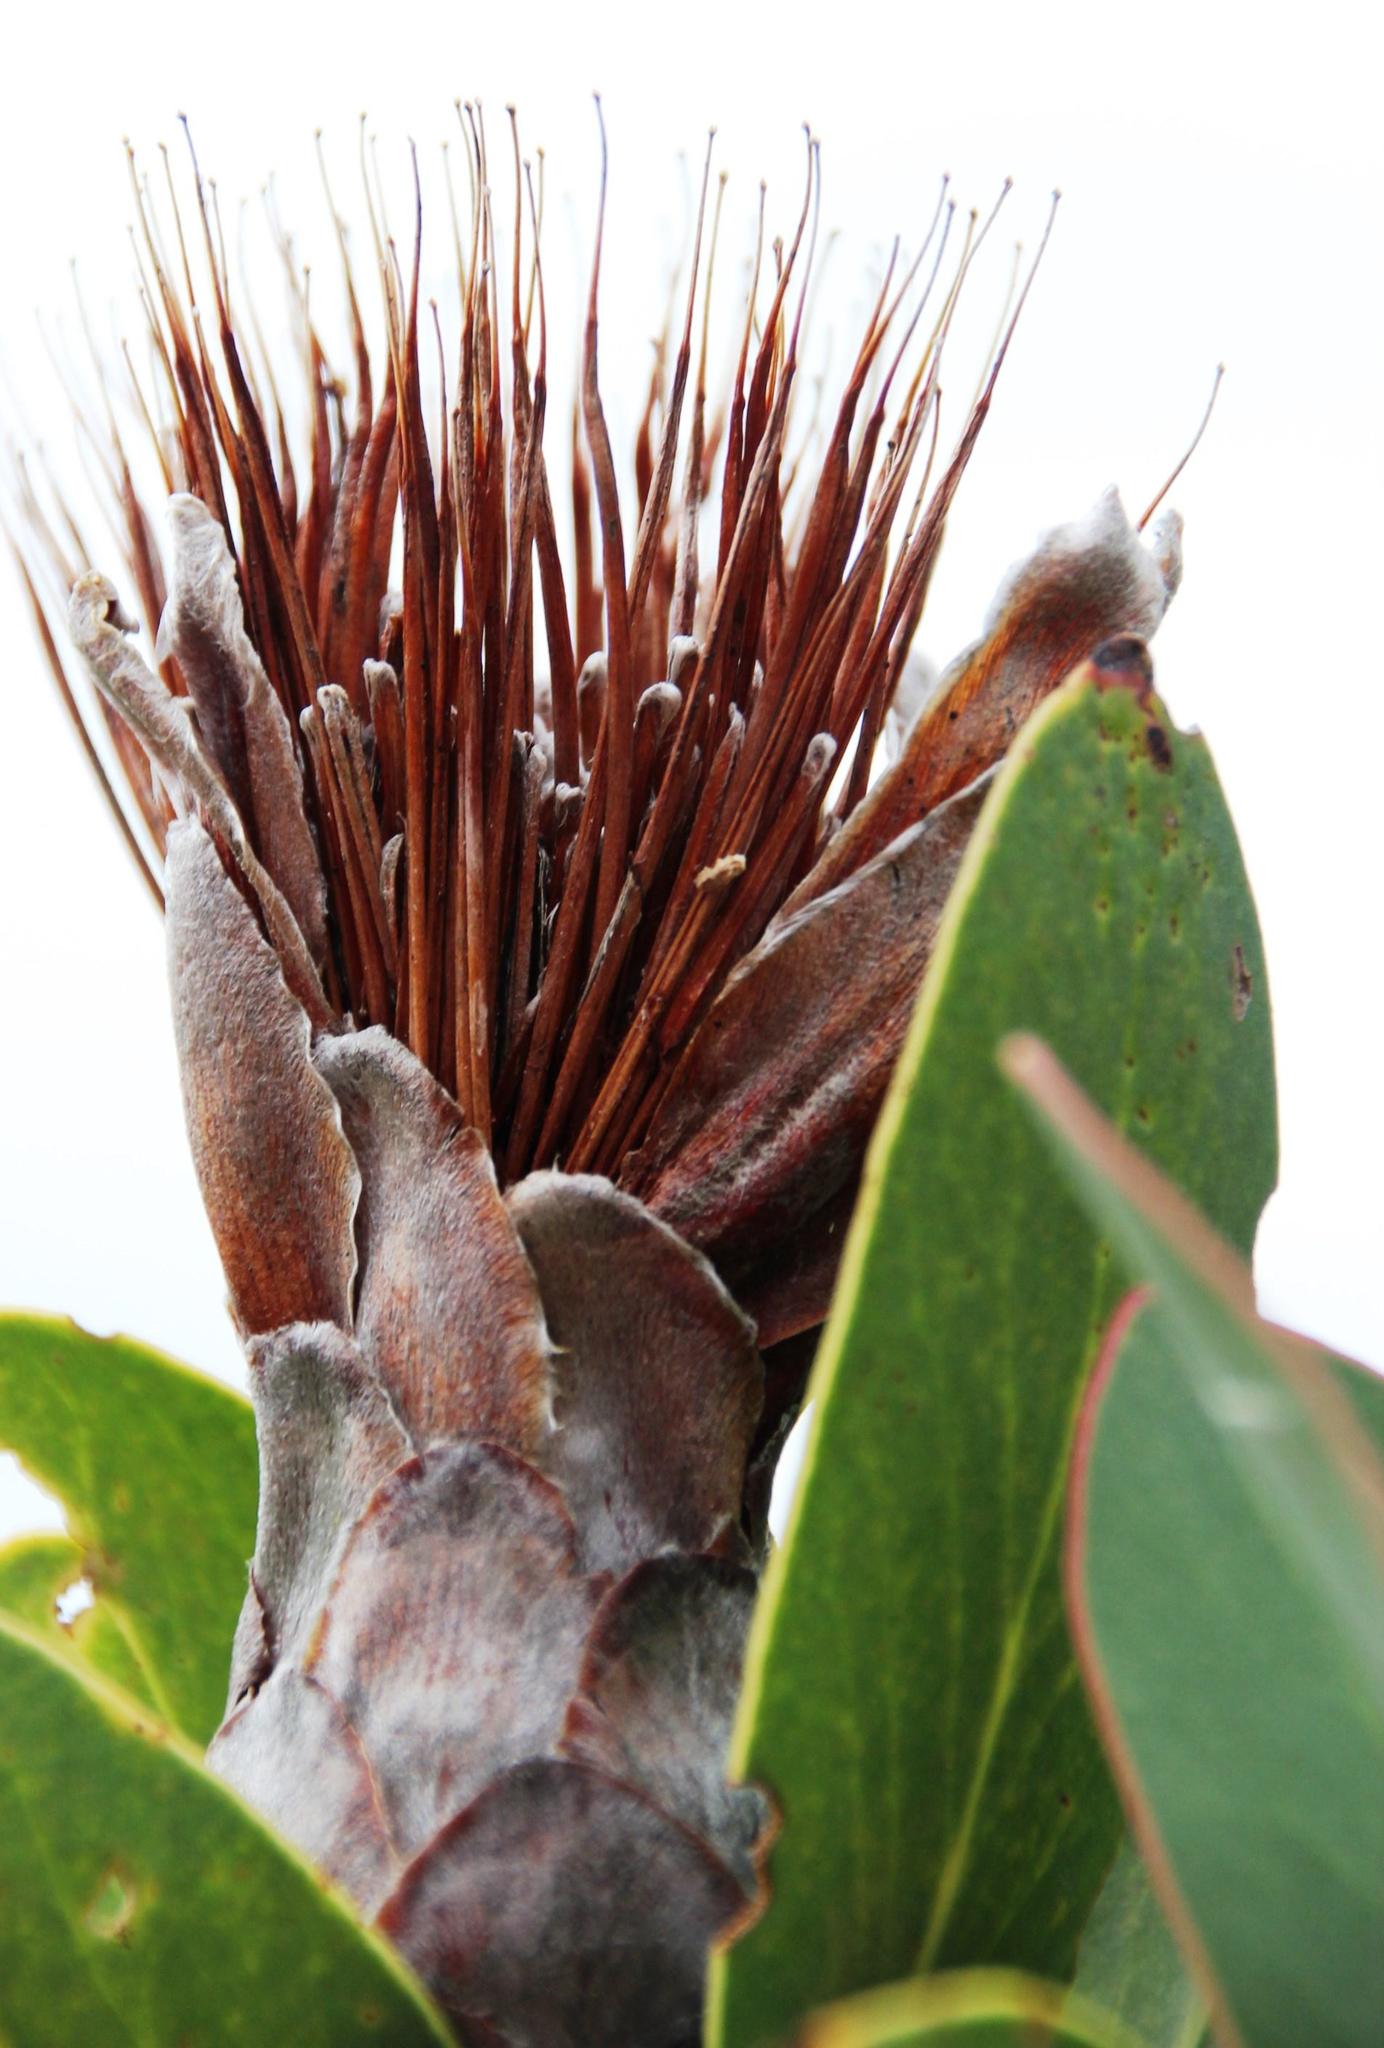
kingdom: Plantae
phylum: Tracheophyta
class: Magnoliopsida
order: Proteales
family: Proteaceae
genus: Protea
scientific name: Protea lacticolor
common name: Hottentot sugarbush
